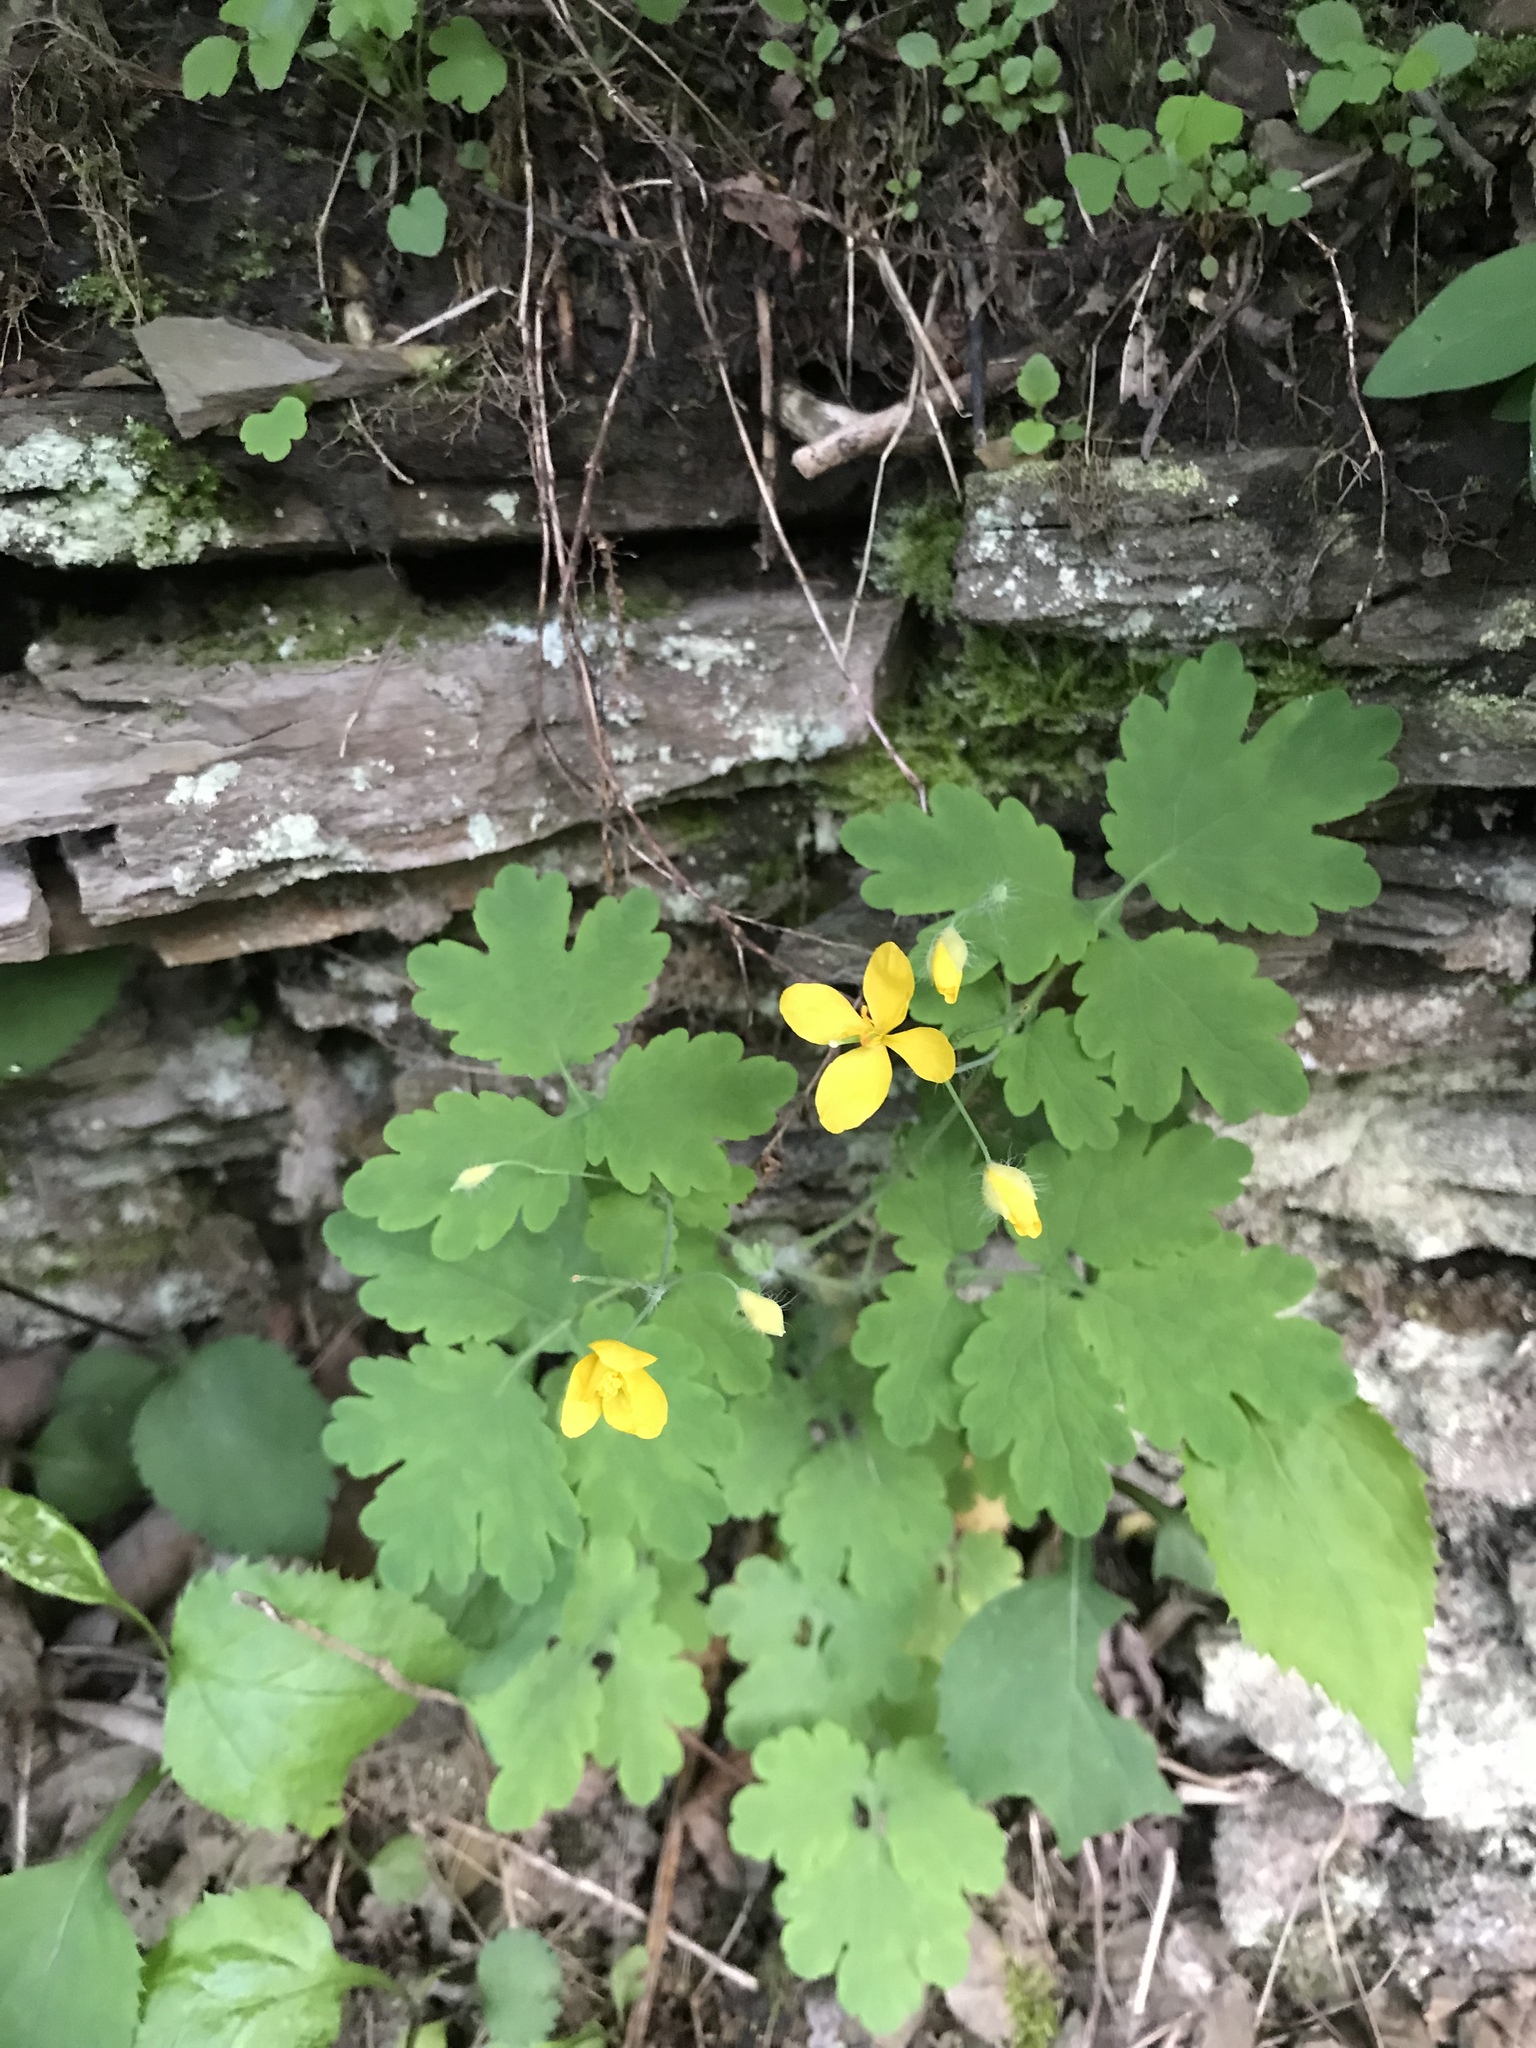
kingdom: Plantae
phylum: Tracheophyta
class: Magnoliopsida
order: Ranunculales
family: Papaveraceae
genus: Chelidonium
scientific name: Chelidonium majus
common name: Greater celandine
